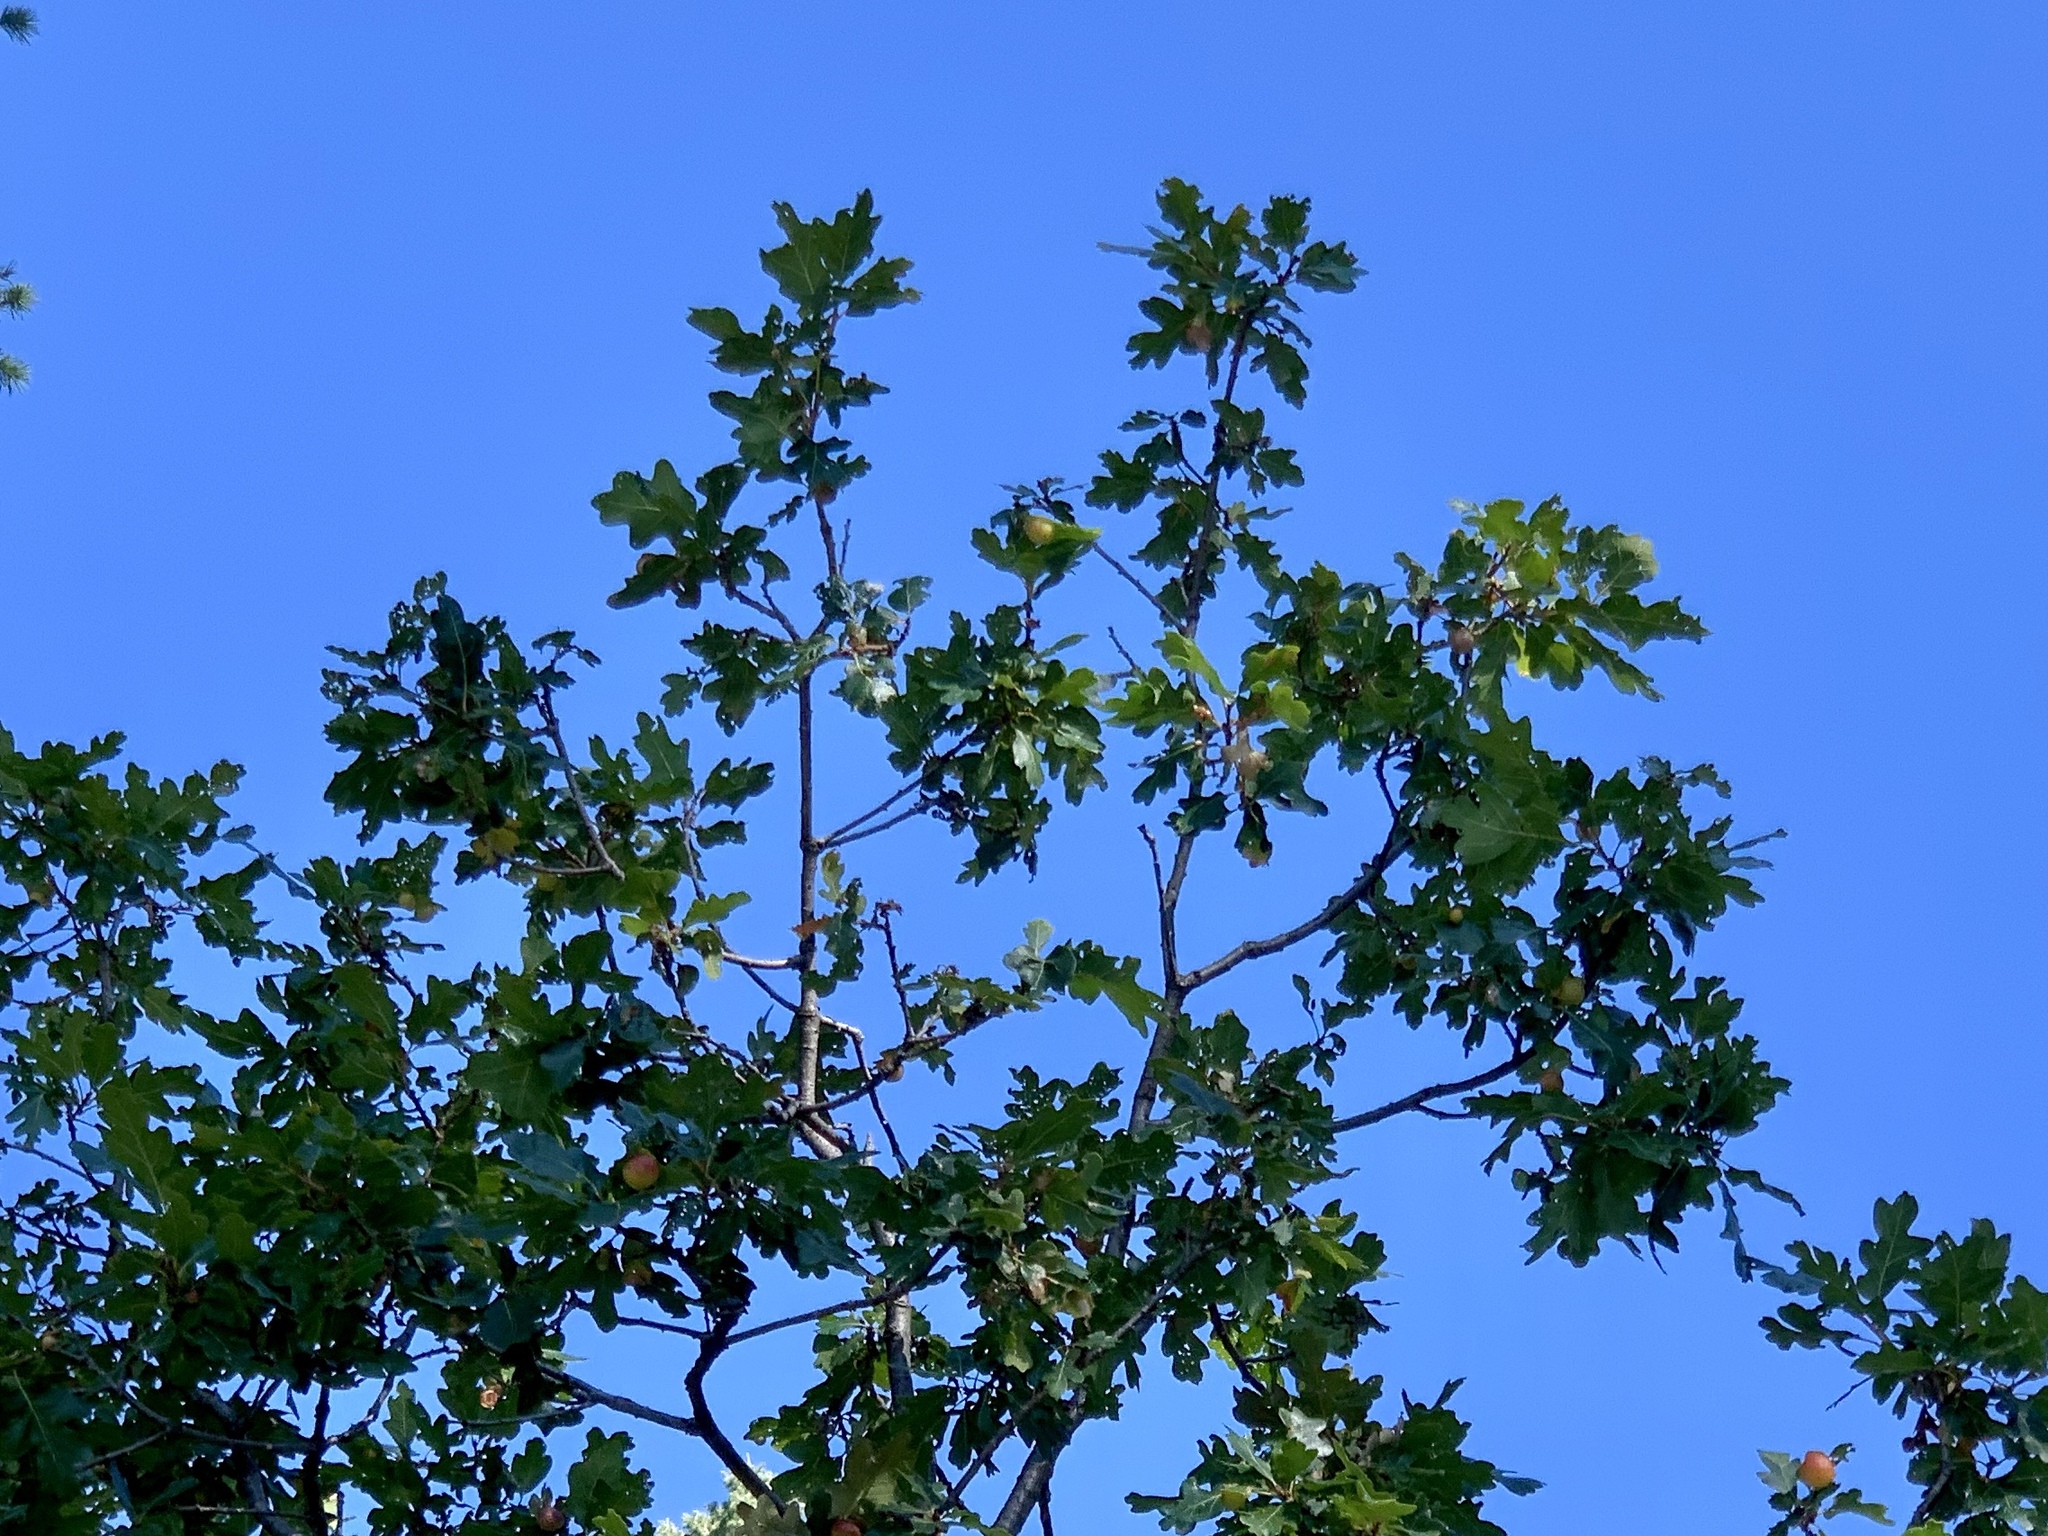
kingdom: Plantae
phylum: Tracheophyta
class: Magnoliopsida
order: Fagales
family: Fagaceae
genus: Quercus
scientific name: Quercus gambelii
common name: Gambel oak
